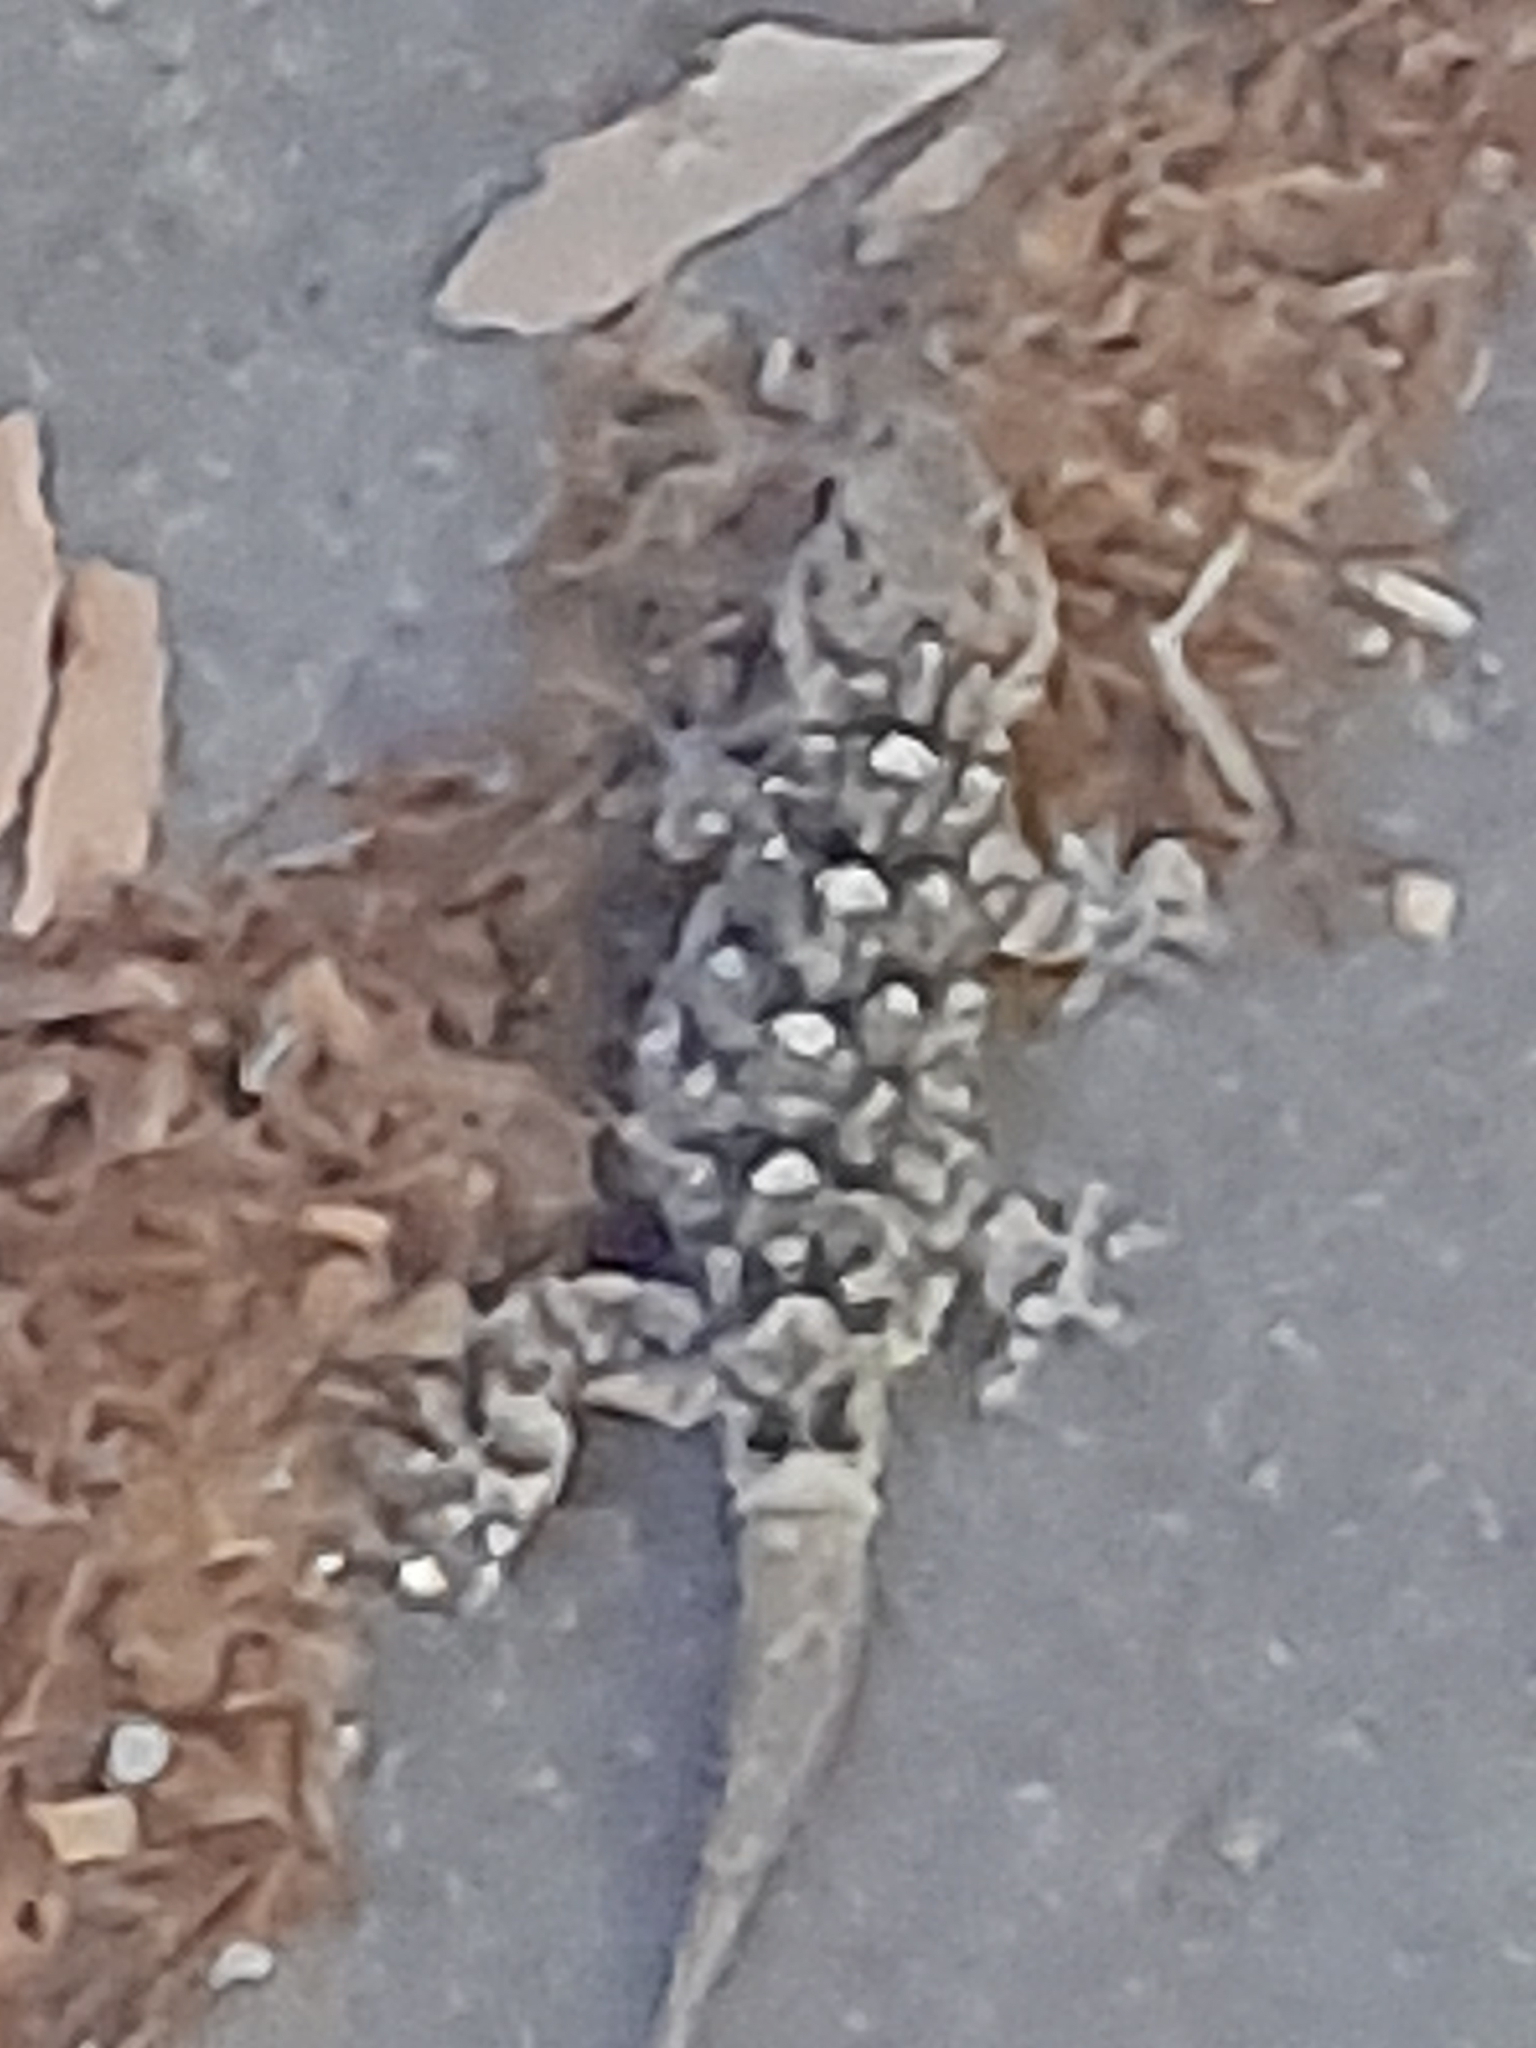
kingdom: Animalia
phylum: Chordata
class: Squamata
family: Phyllodactylidae
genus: Tarentola
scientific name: Tarentola mauritanica
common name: Moorish gecko
